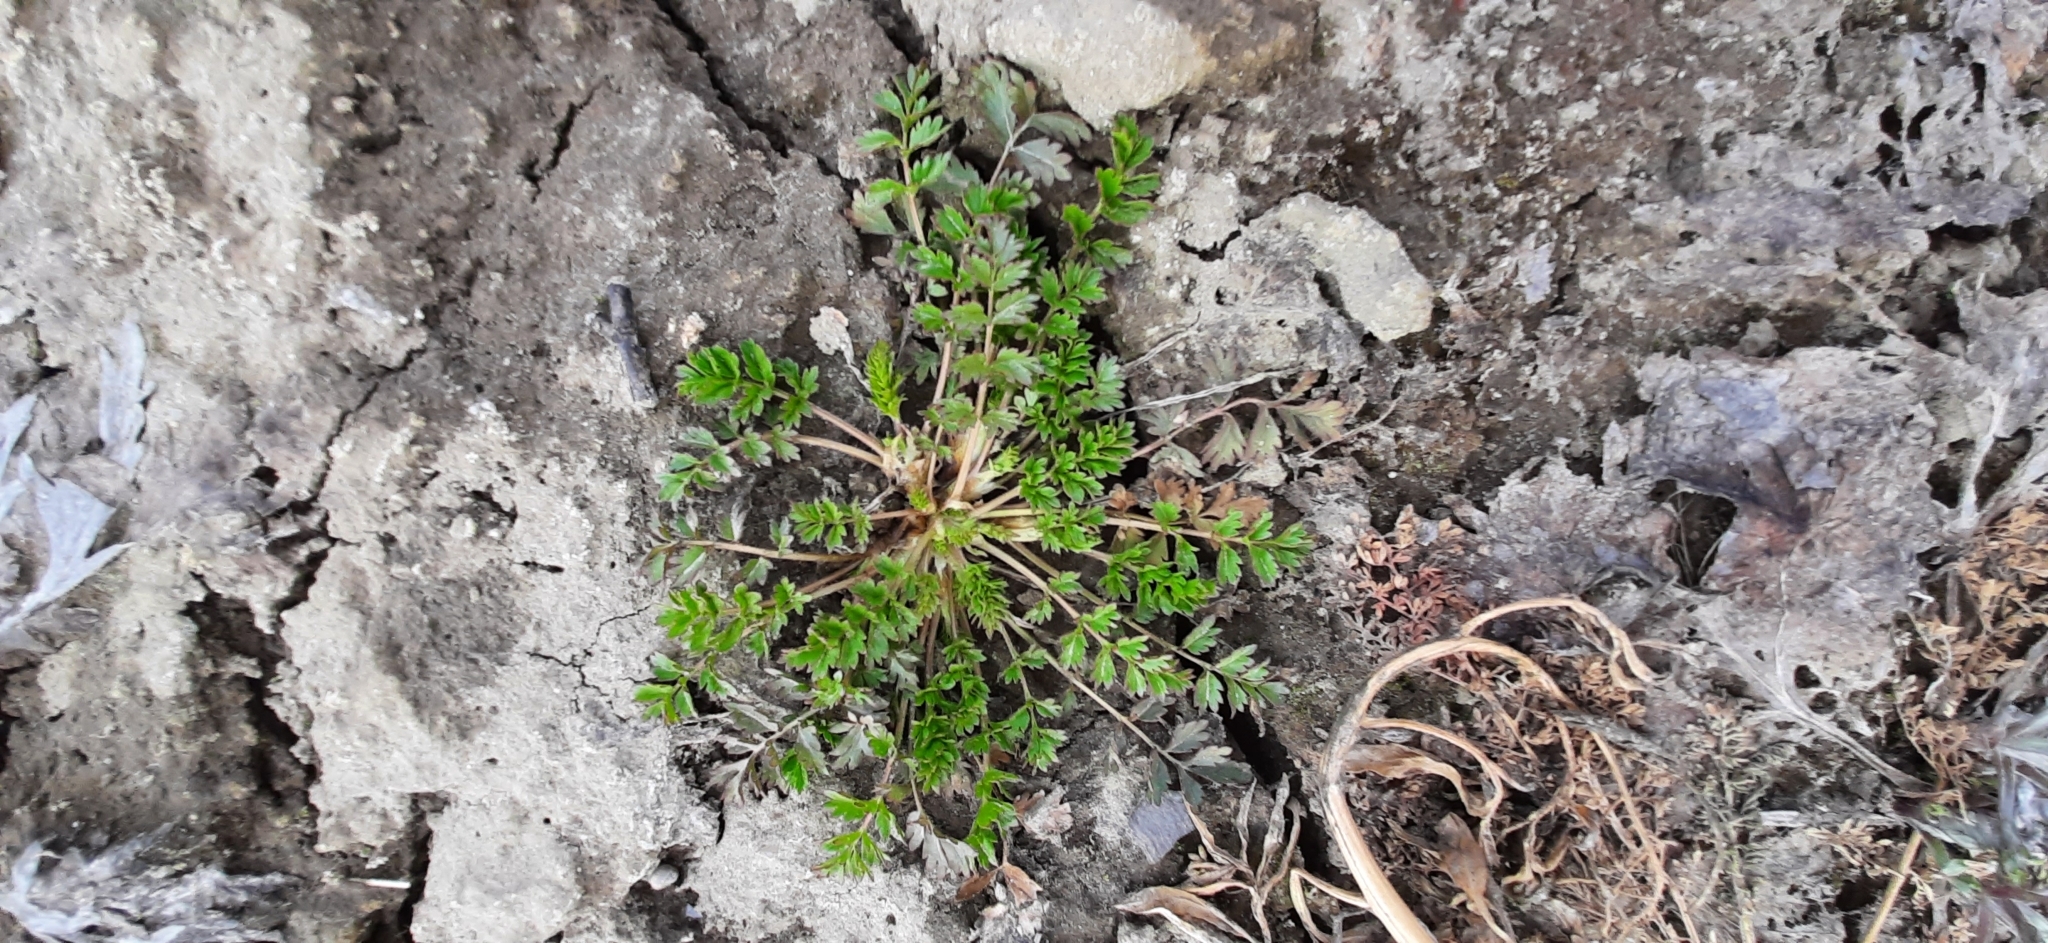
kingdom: Plantae
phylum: Tracheophyta
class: Magnoliopsida
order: Rosales
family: Rosaceae
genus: Potentilla
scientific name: Potentilla supina
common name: Prostrate cinquefoil
